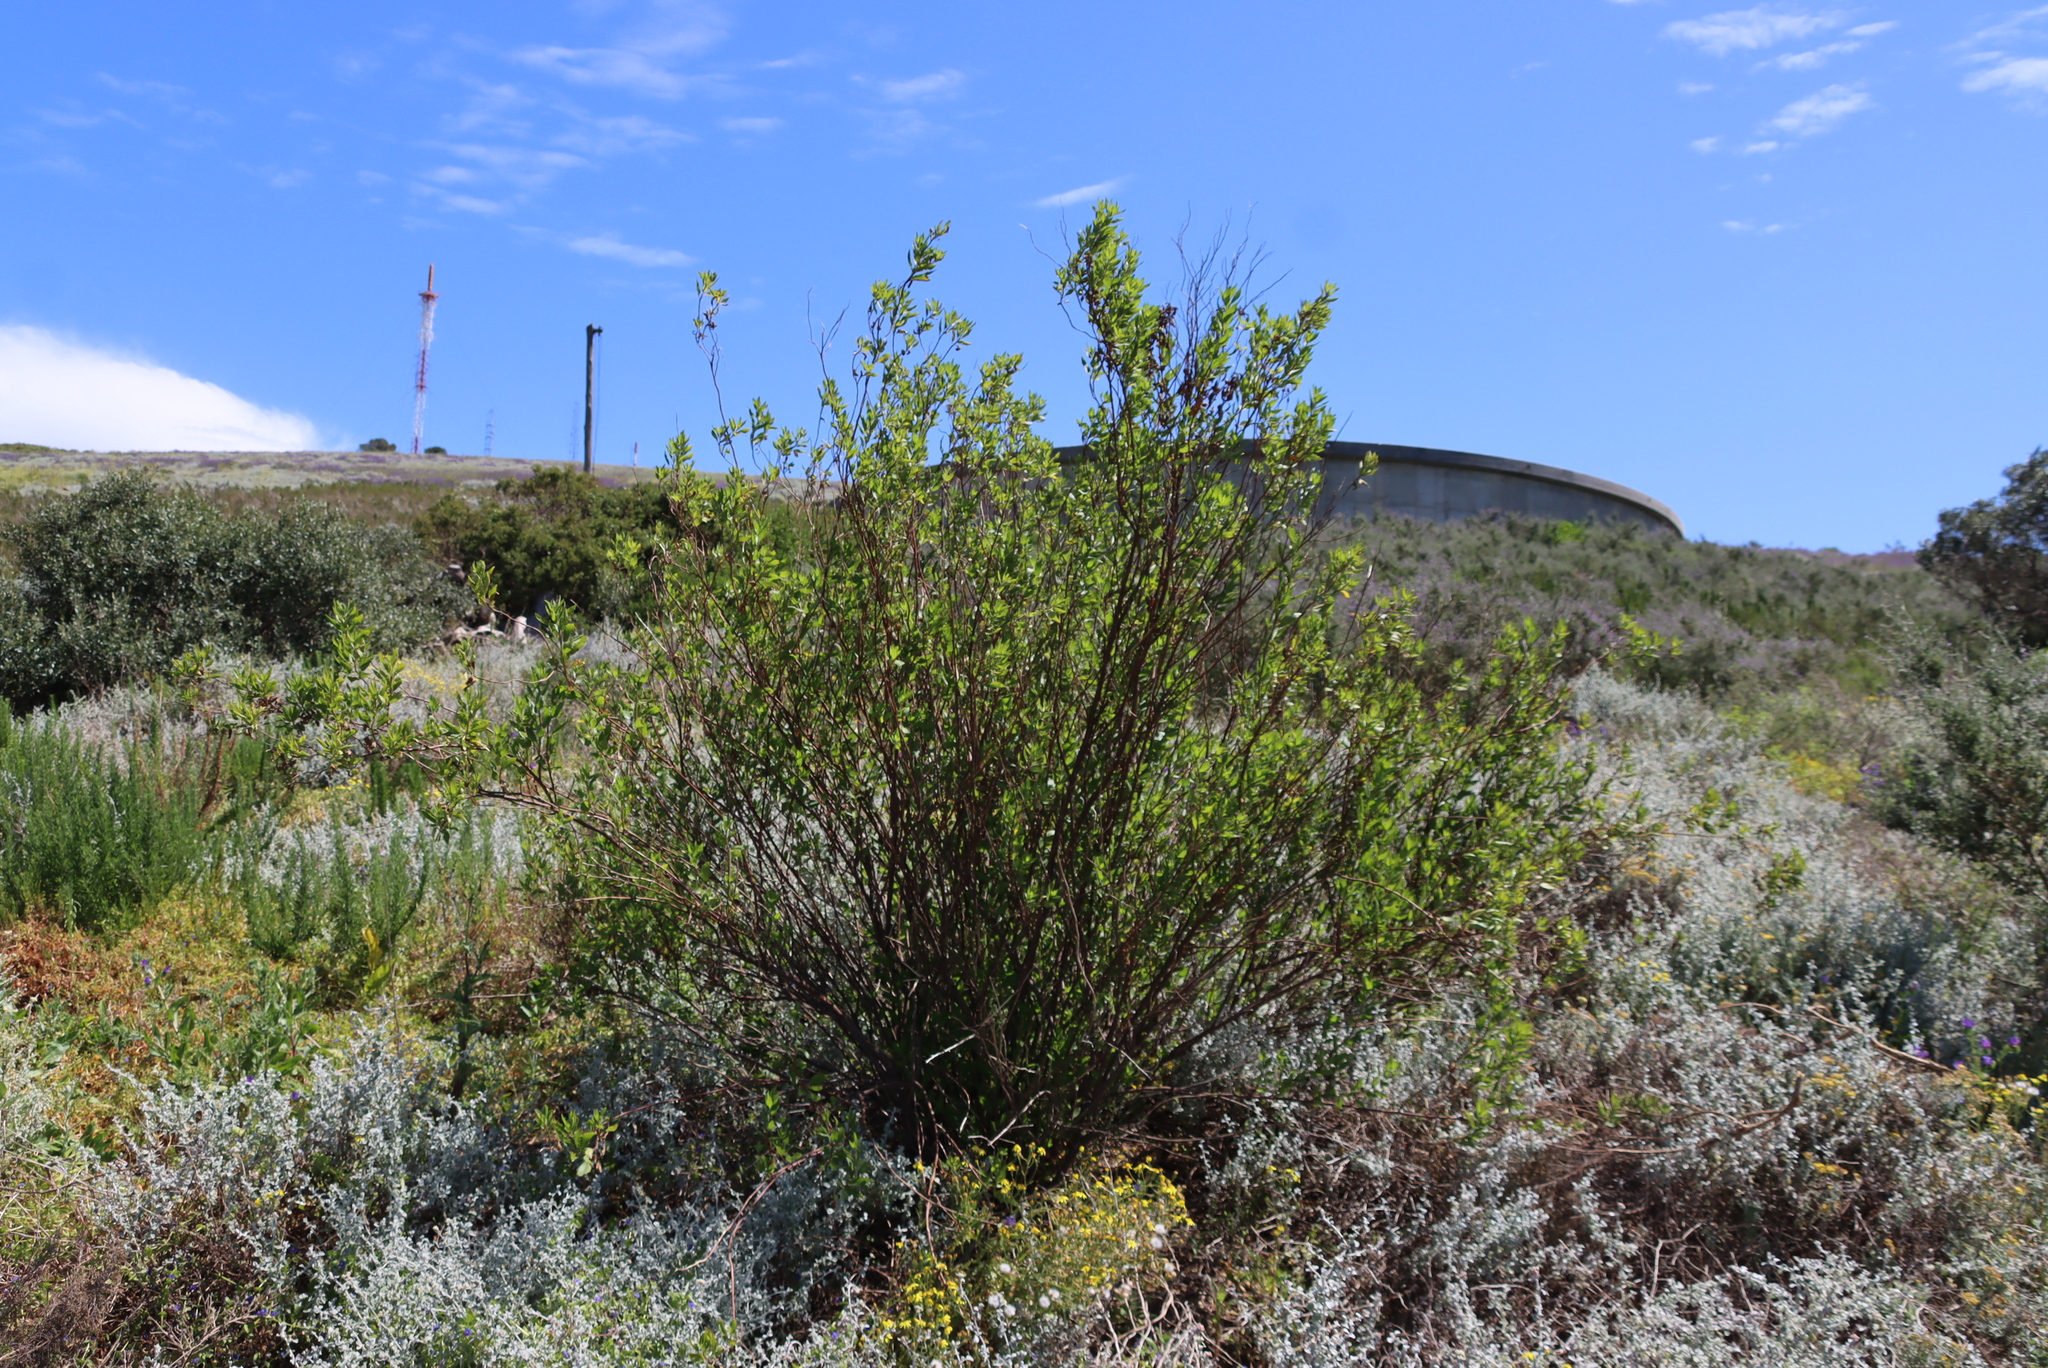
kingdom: Plantae
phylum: Tracheophyta
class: Magnoliopsida
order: Asterales
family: Asteraceae
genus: Nidorella
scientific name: Nidorella ivifolia
